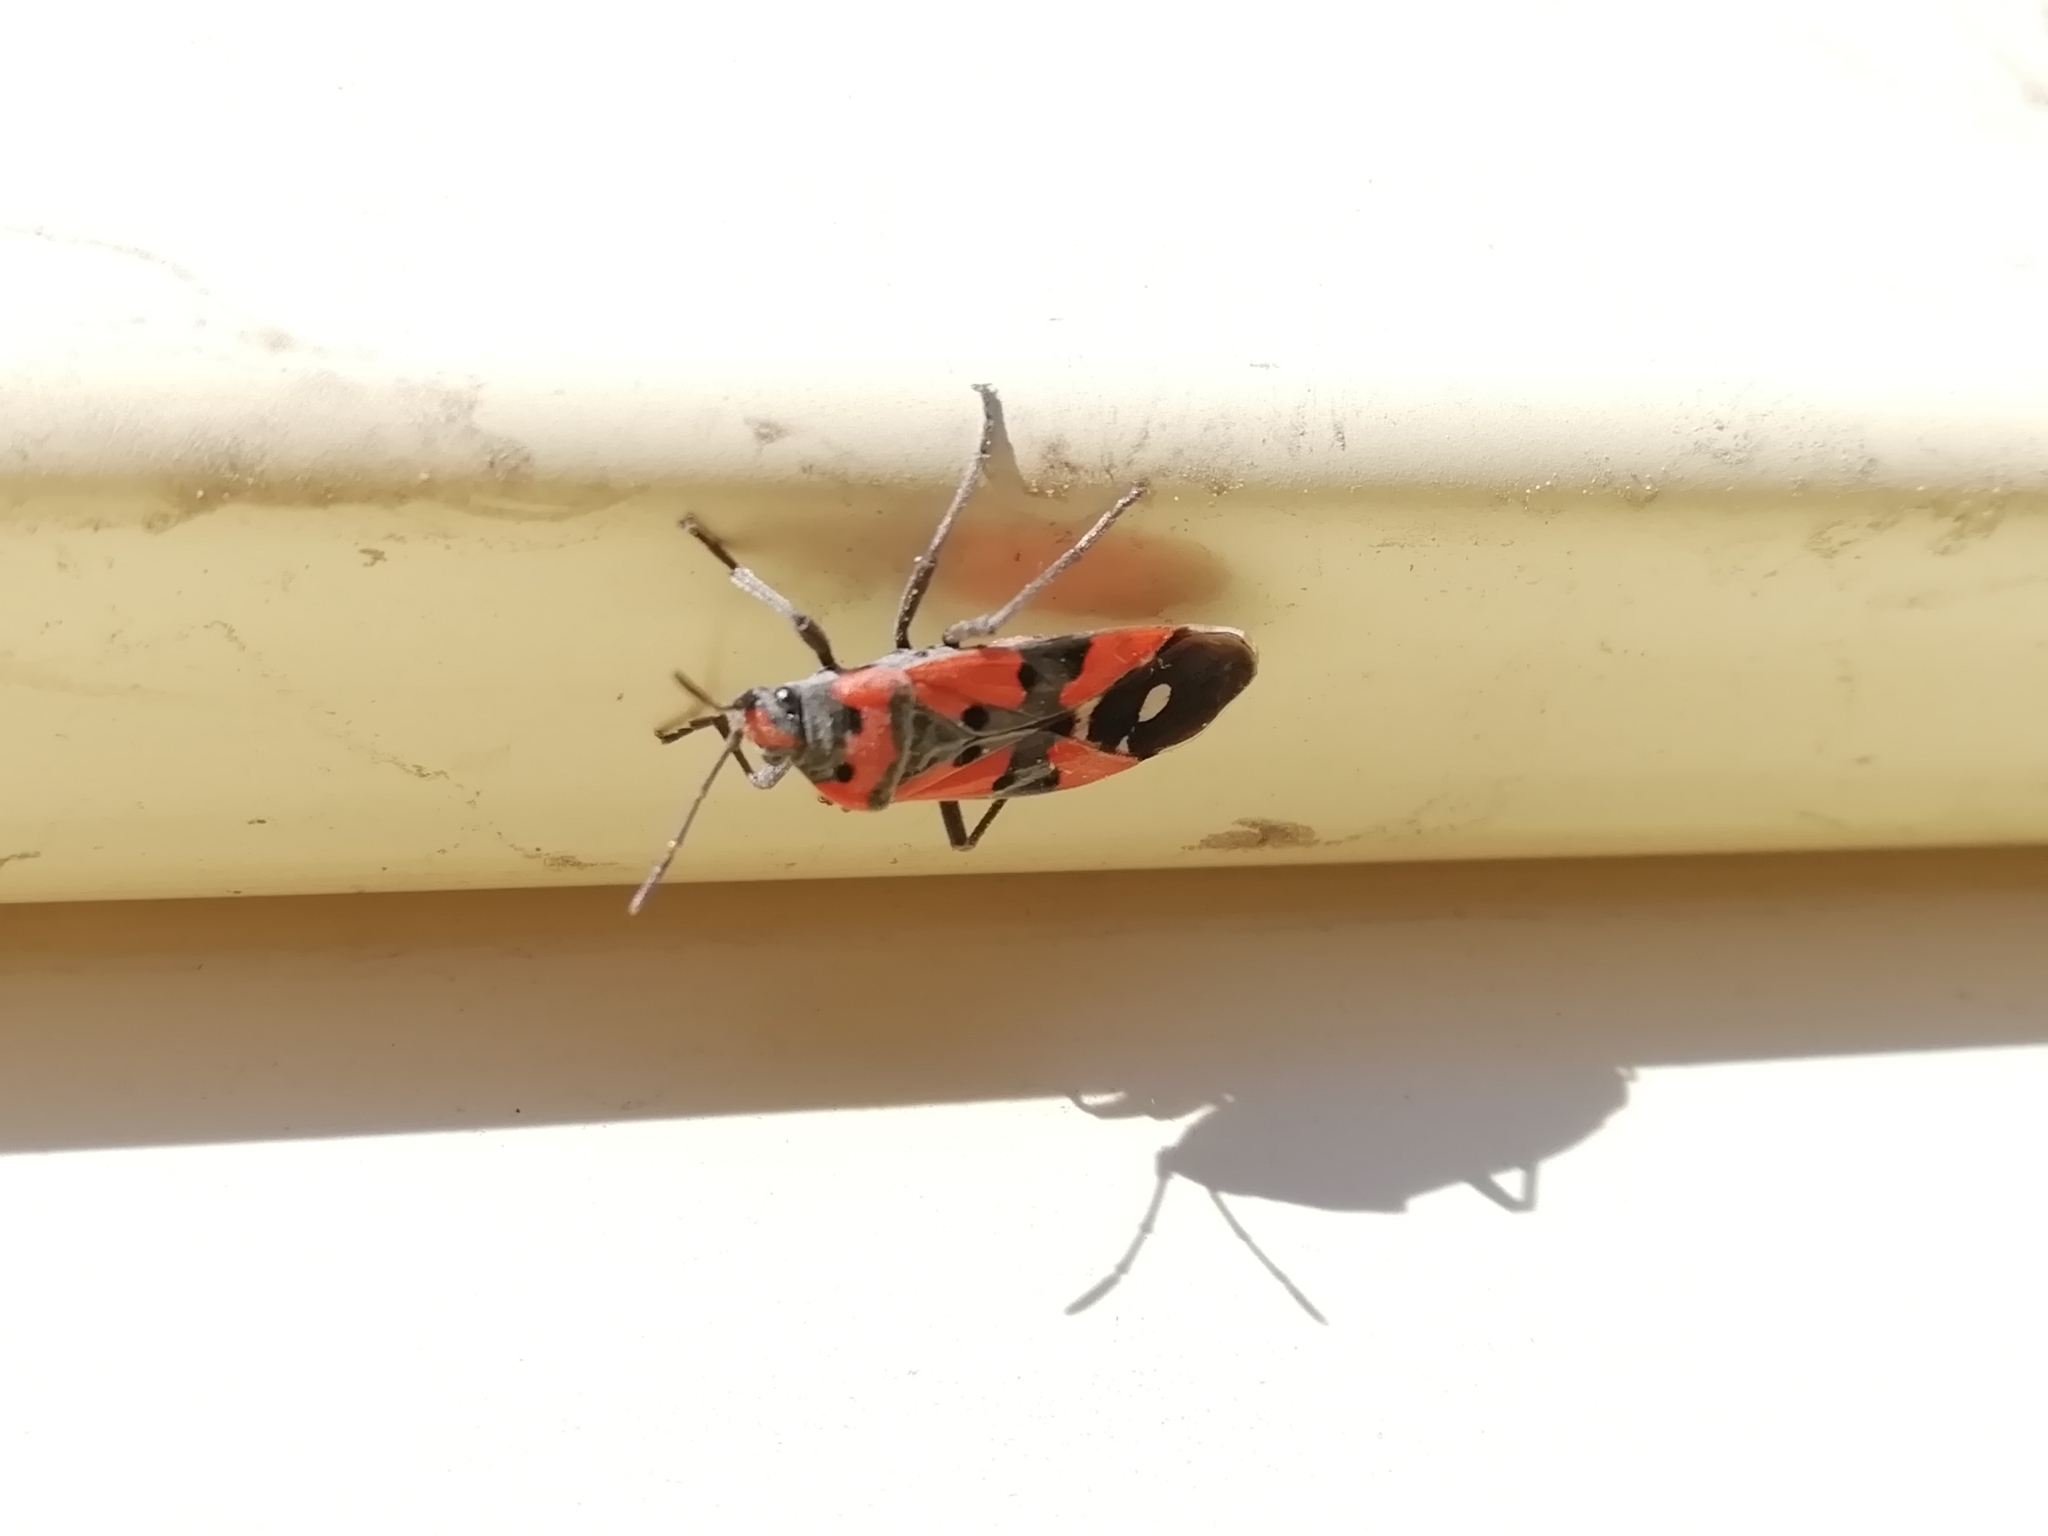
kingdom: Animalia
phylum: Arthropoda
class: Insecta
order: Hemiptera
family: Lygaeidae
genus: Lygaeus
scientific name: Lygaeus equestris
